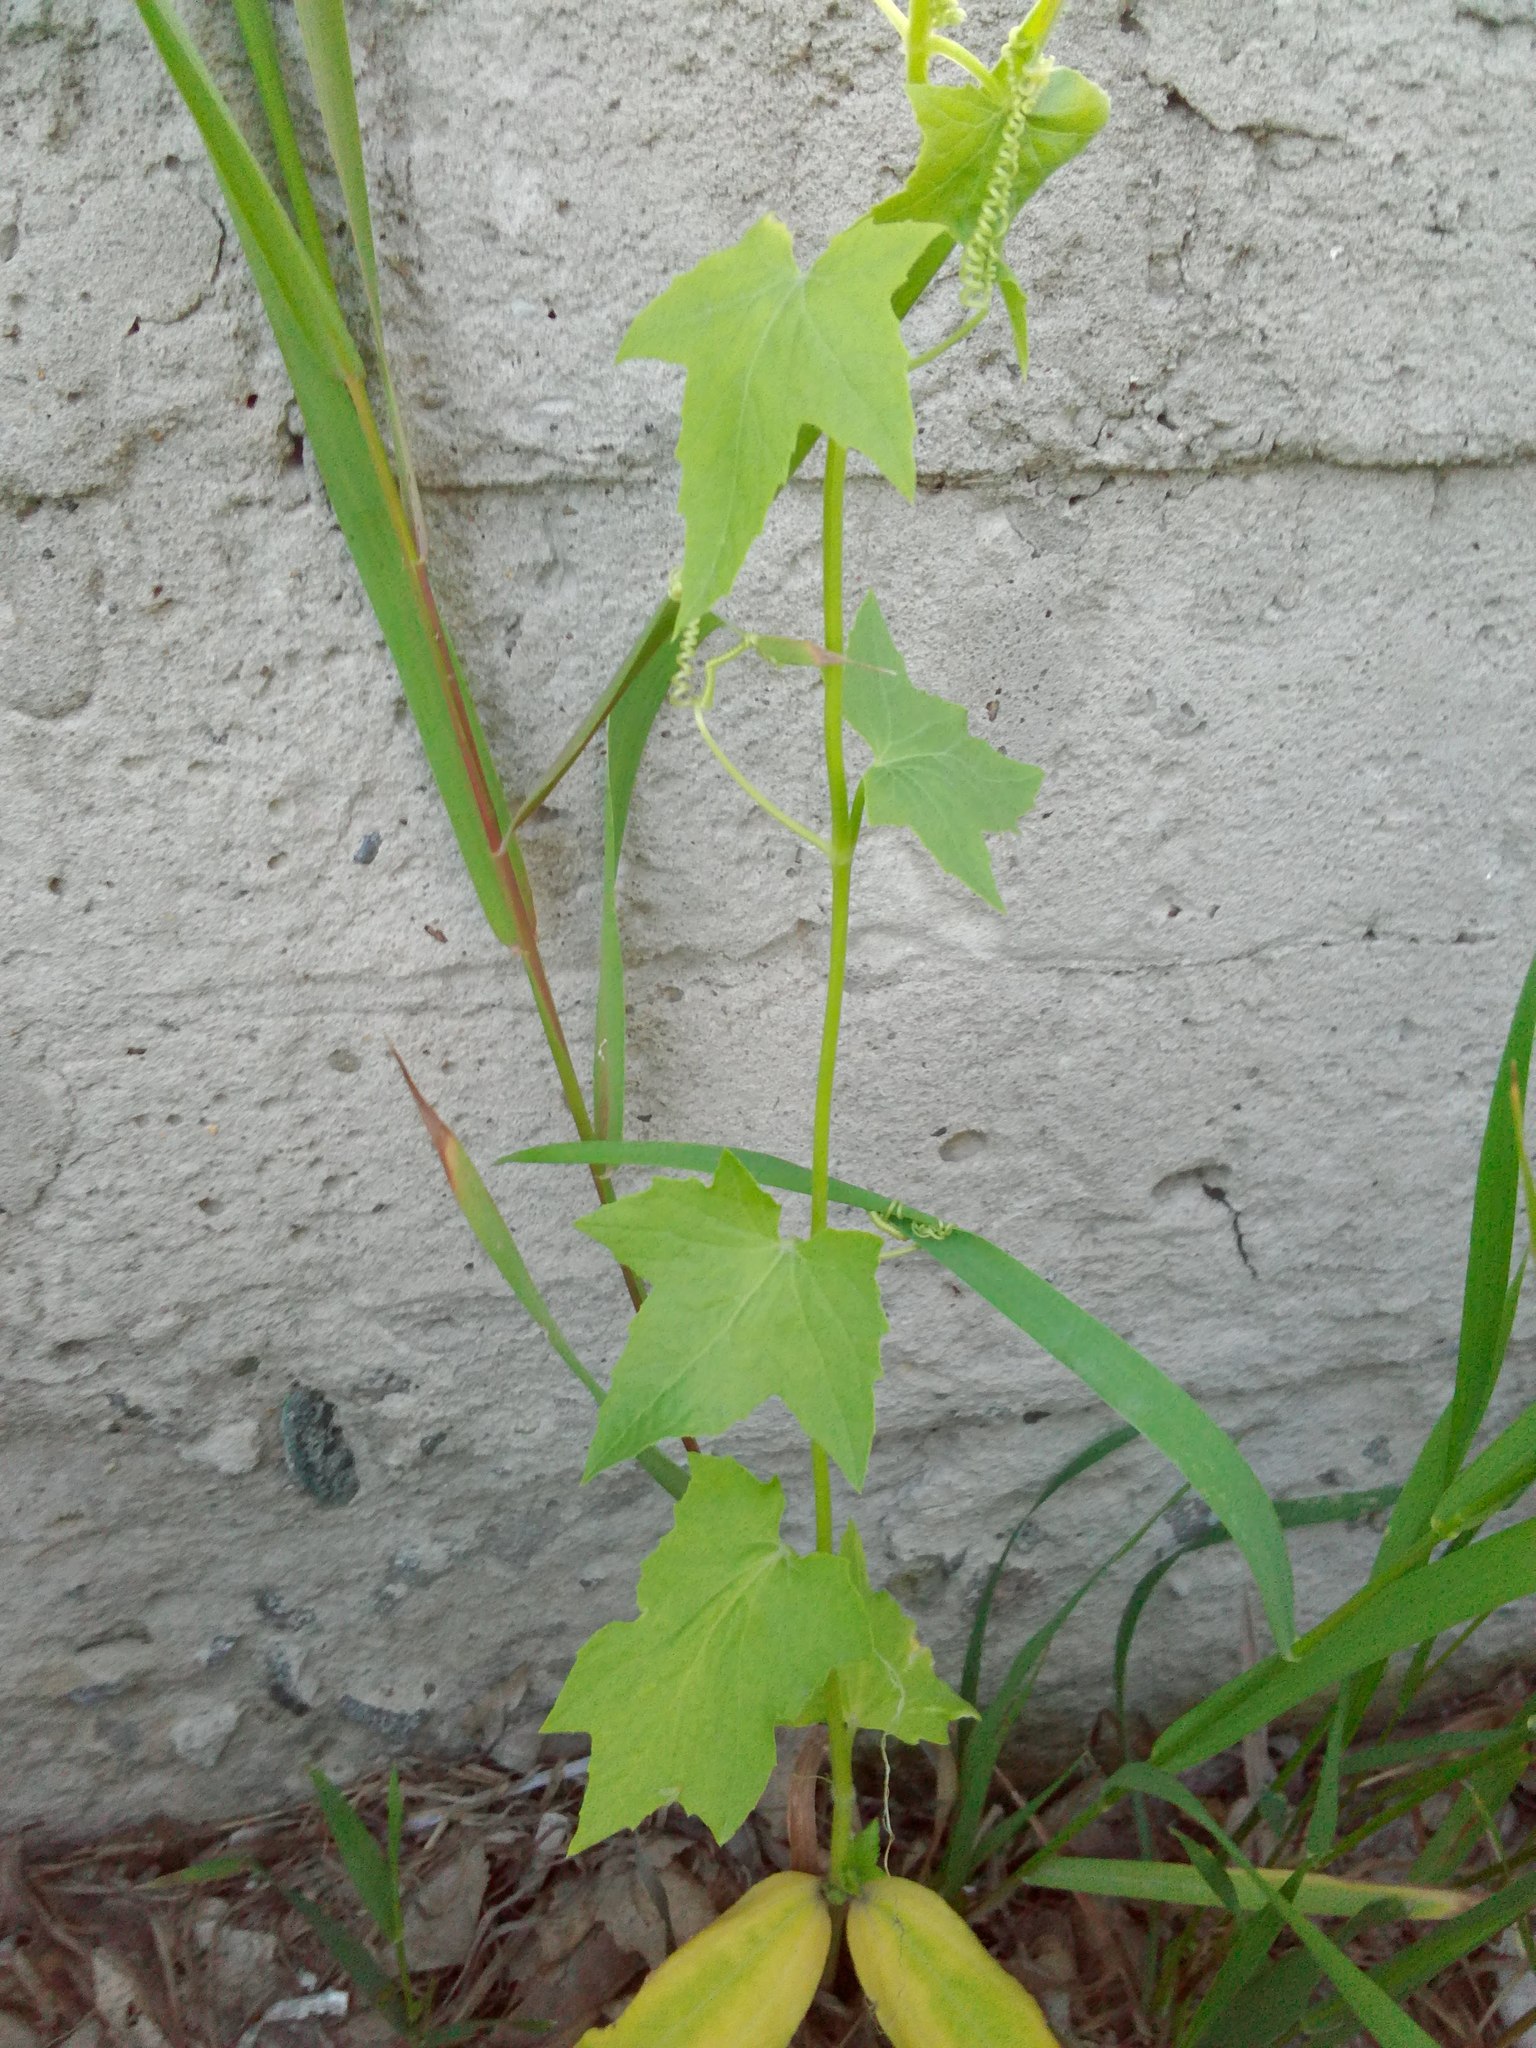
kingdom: Plantae
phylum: Tracheophyta
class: Magnoliopsida
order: Cucurbitales
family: Cucurbitaceae
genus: Echinocystis
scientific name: Echinocystis lobata
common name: Wild cucumber
